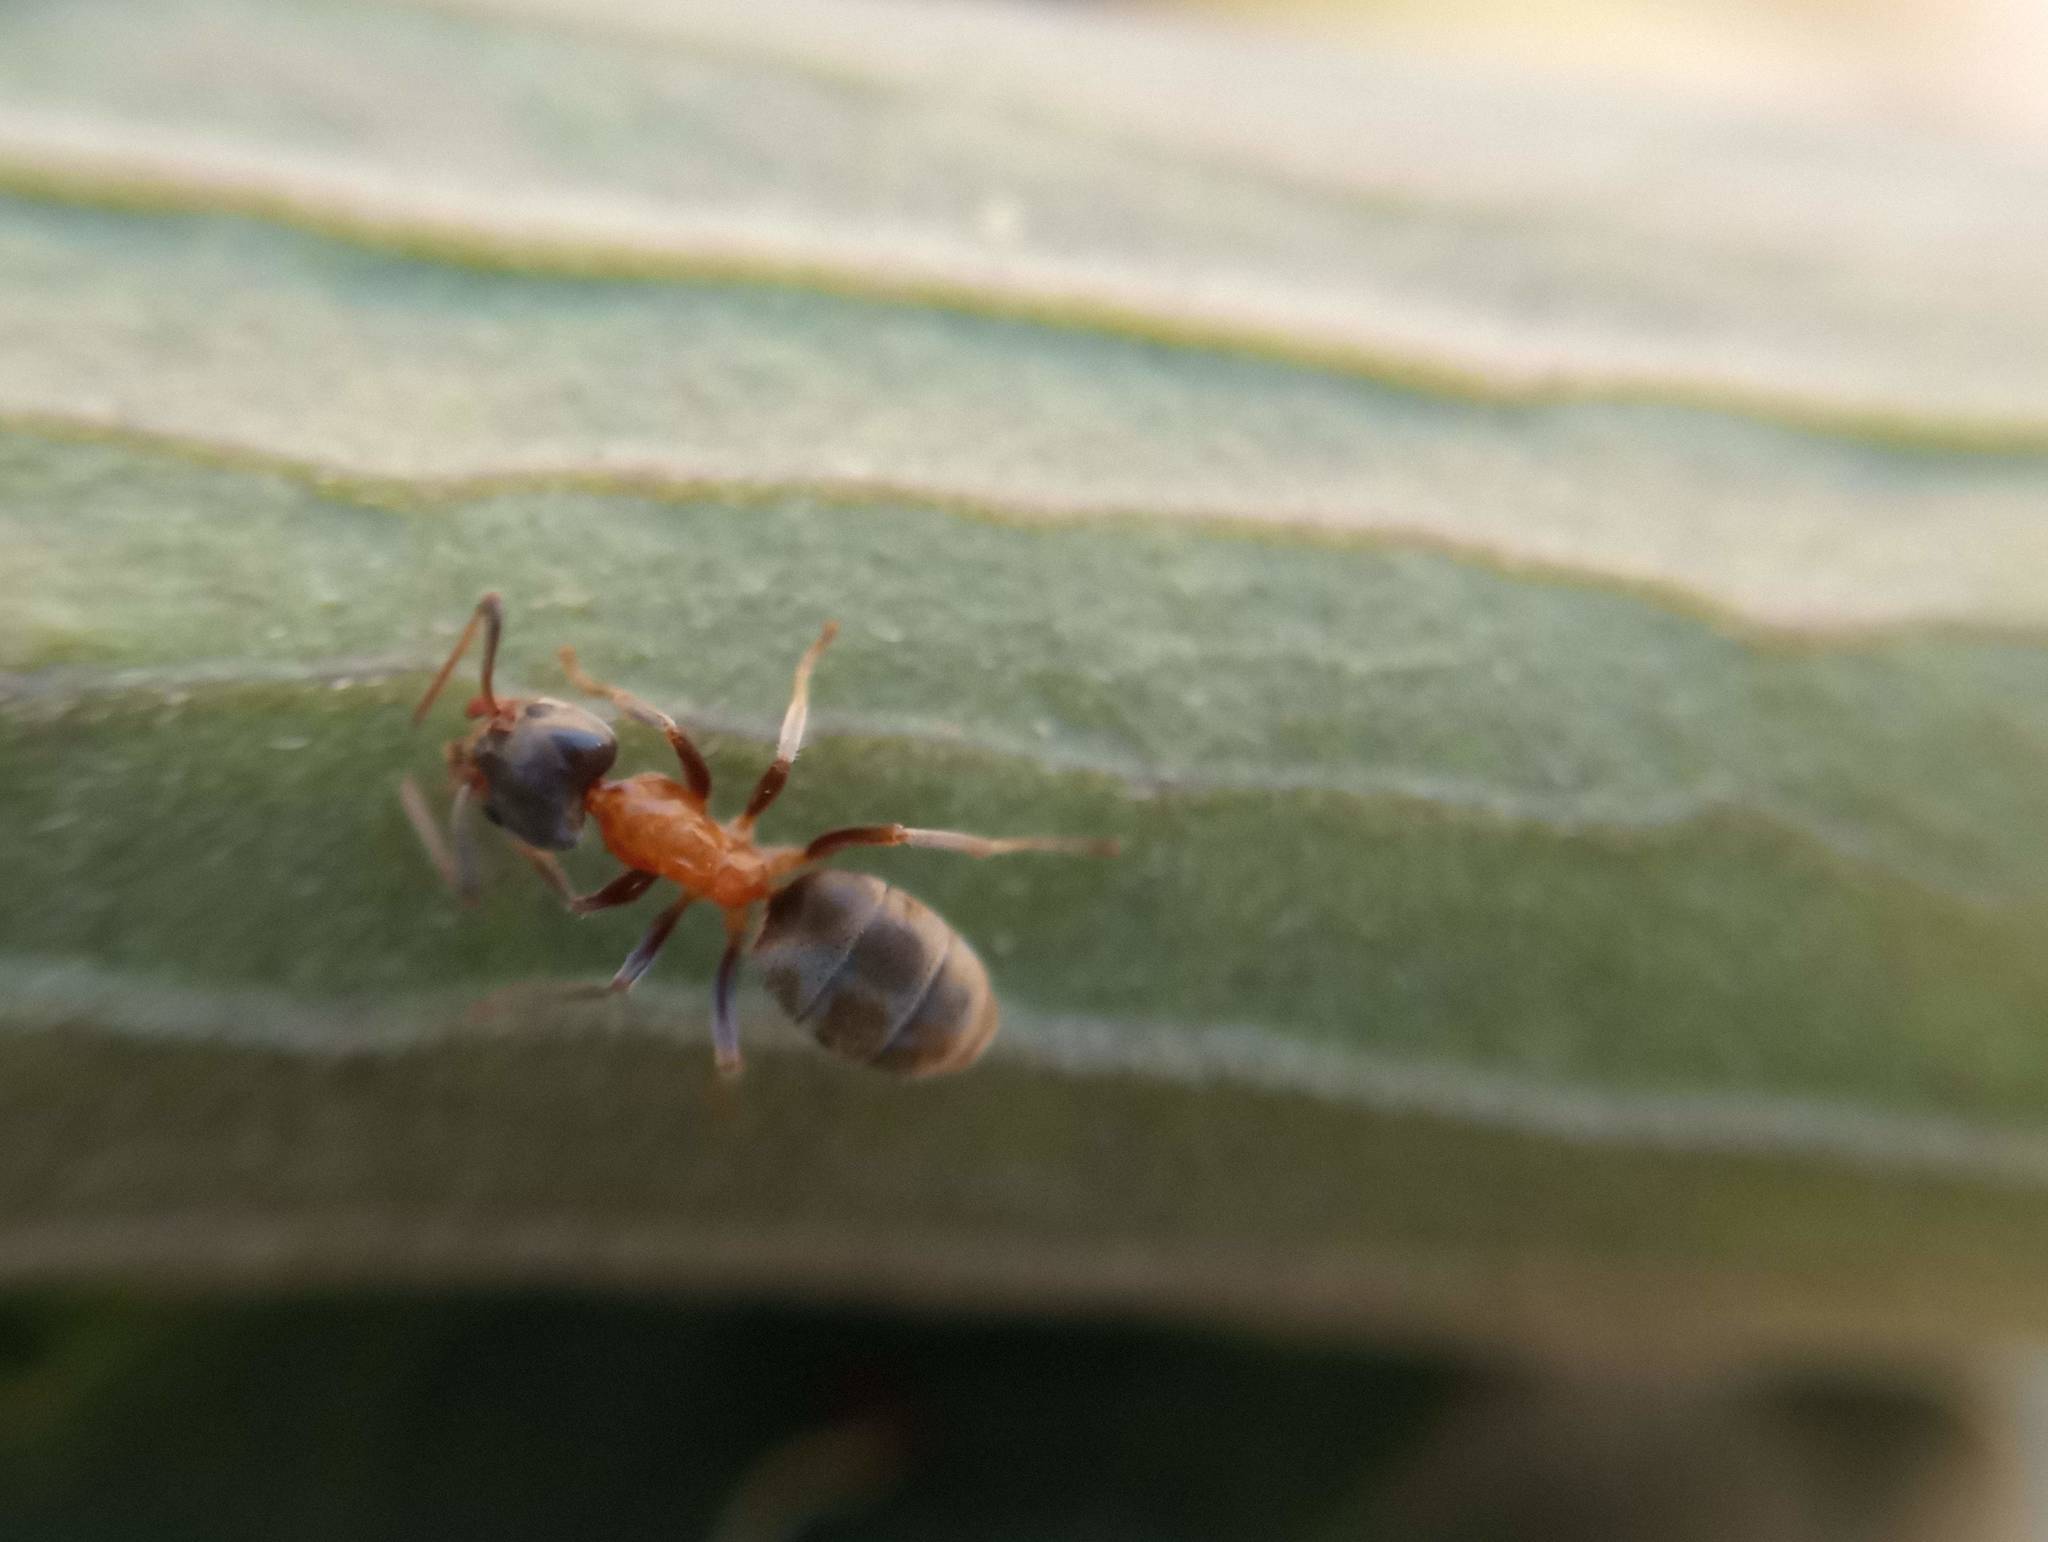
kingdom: Animalia
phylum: Arthropoda
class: Insecta
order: Hymenoptera
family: Formicidae
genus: Liometopum
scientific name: Liometopum occidentale
